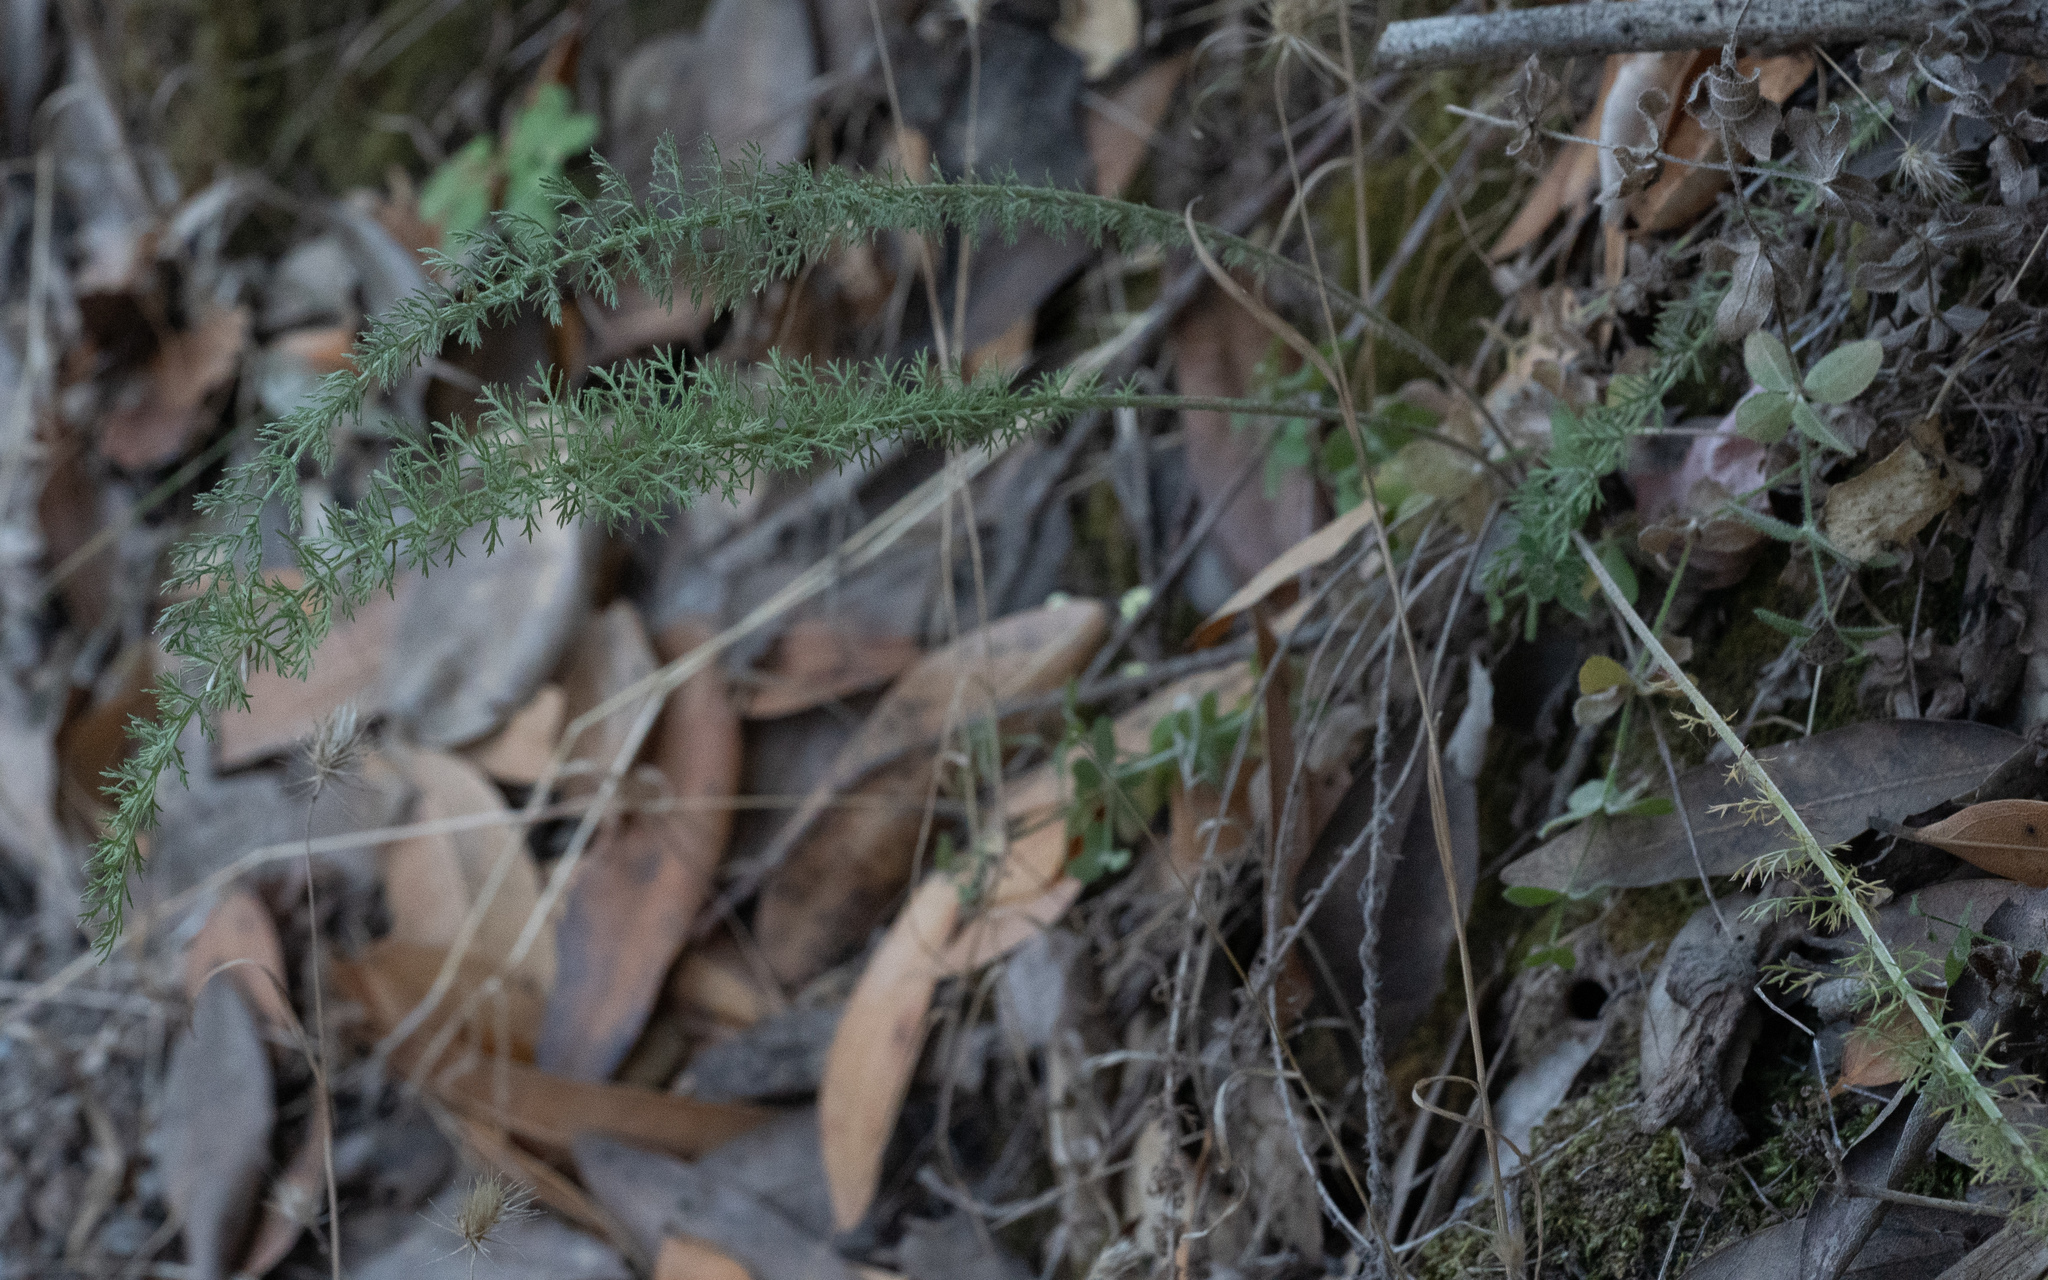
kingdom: Plantae
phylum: Tracheophyta
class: Magnoliopsida
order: Asterales
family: Asteraceae
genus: Achillea
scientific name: Achillea millefolium
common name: Yarrow
